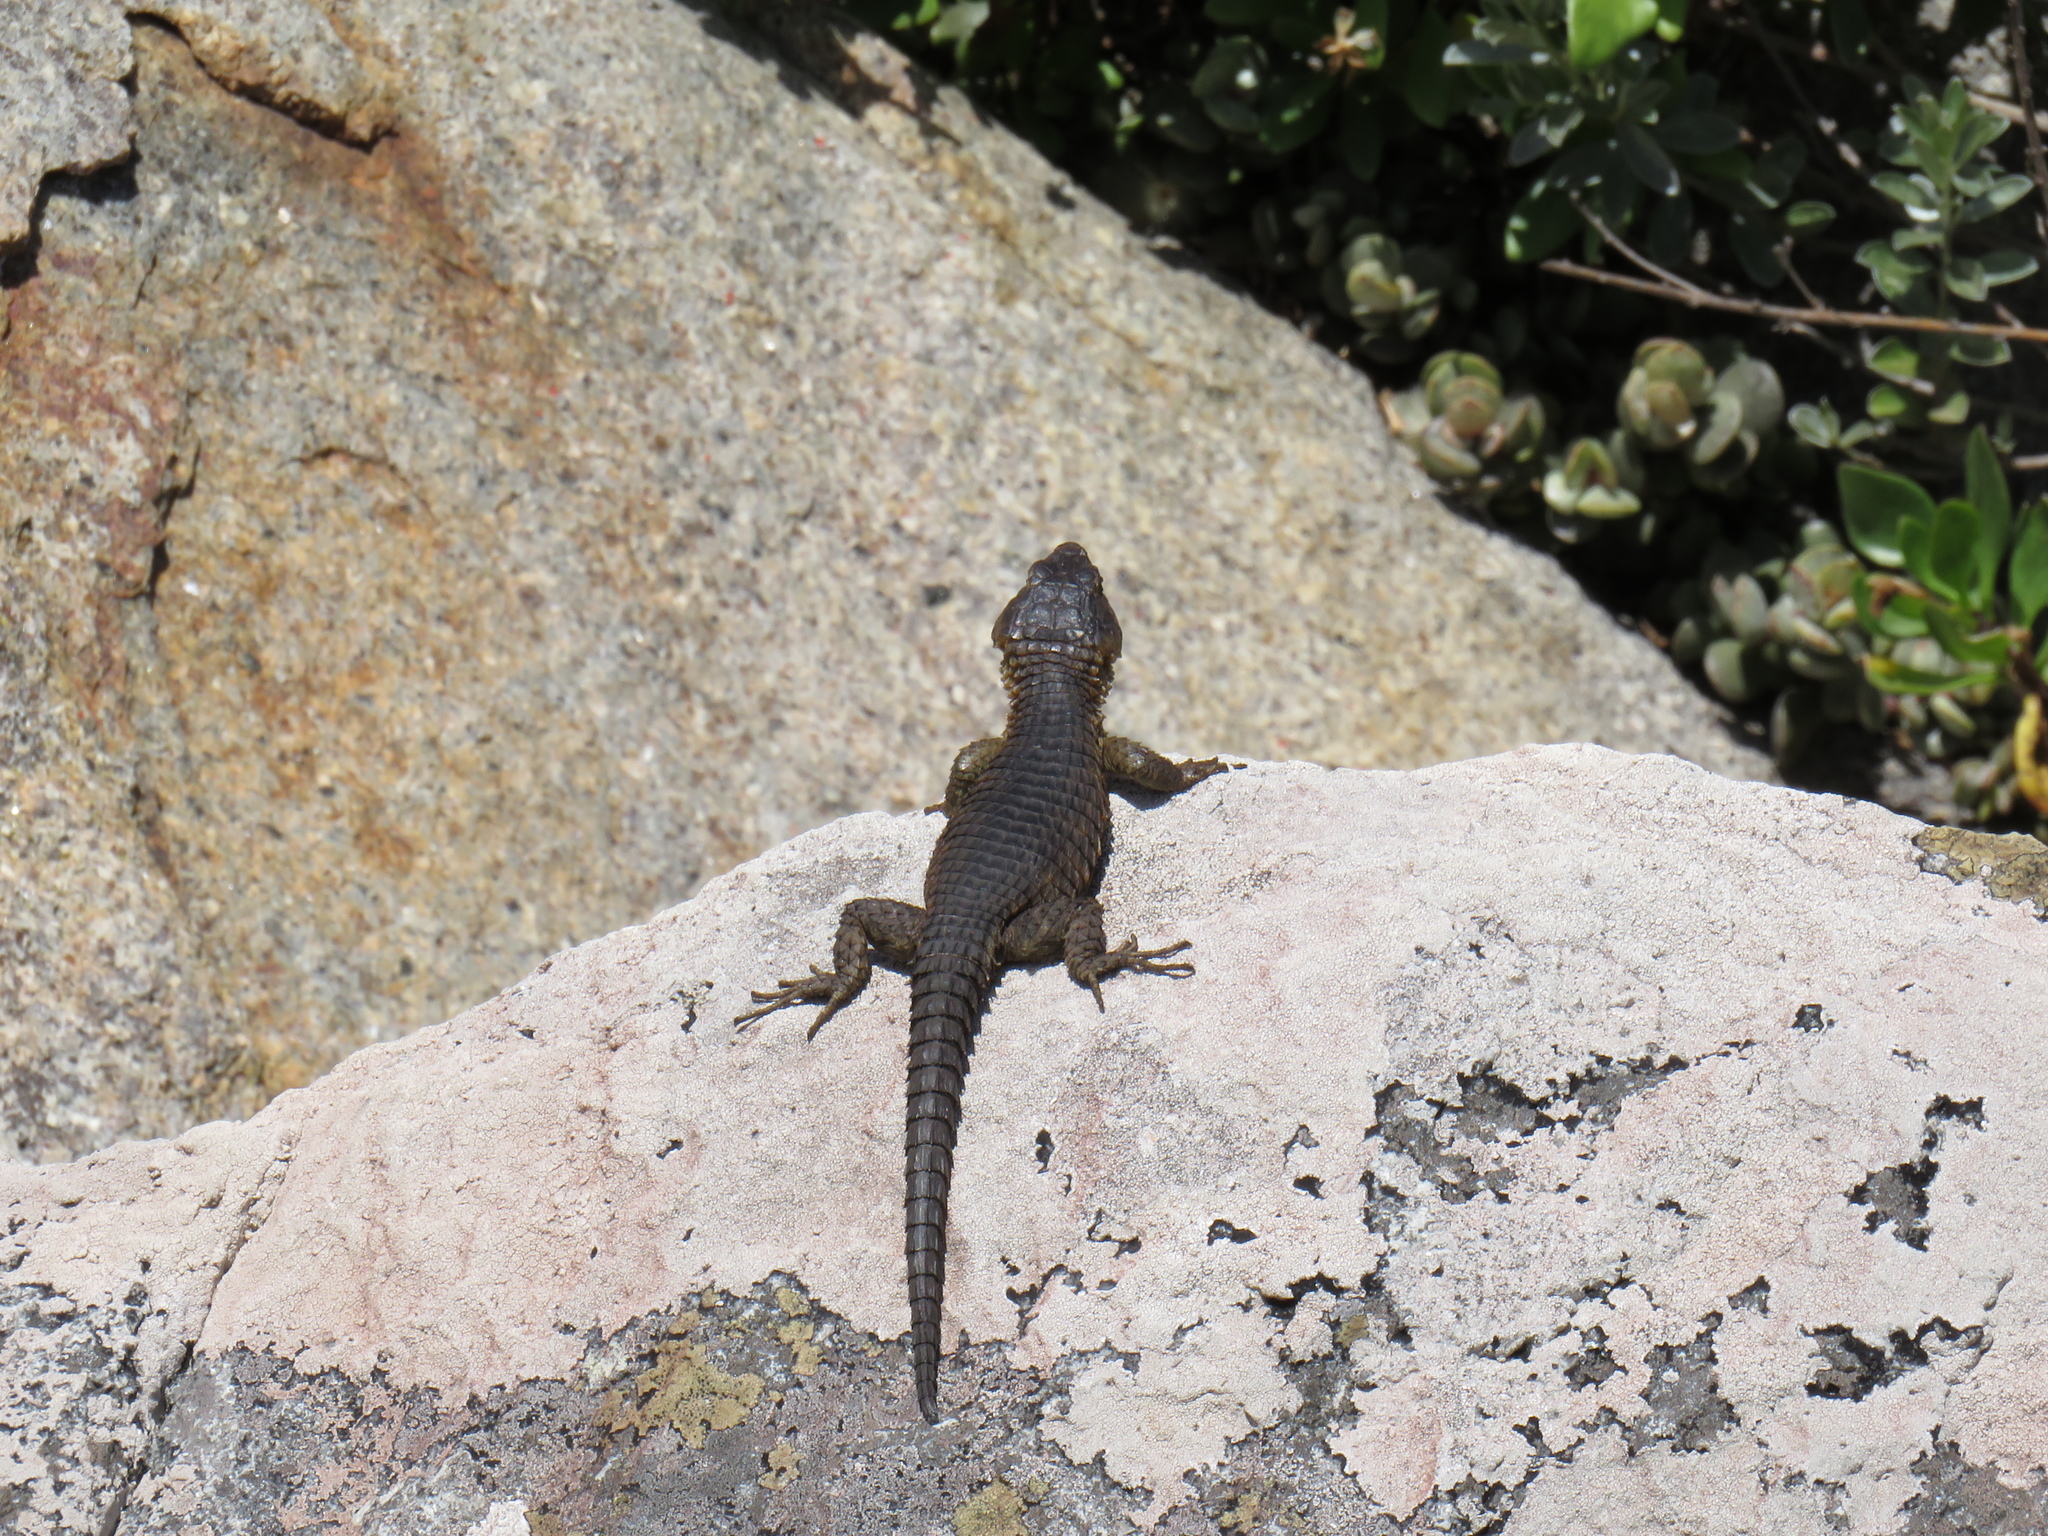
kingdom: Animalia
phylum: Chordata
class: Squamata
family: Cordylidae
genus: Cordylus
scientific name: Cordylus niger
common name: Black girdled lizard
